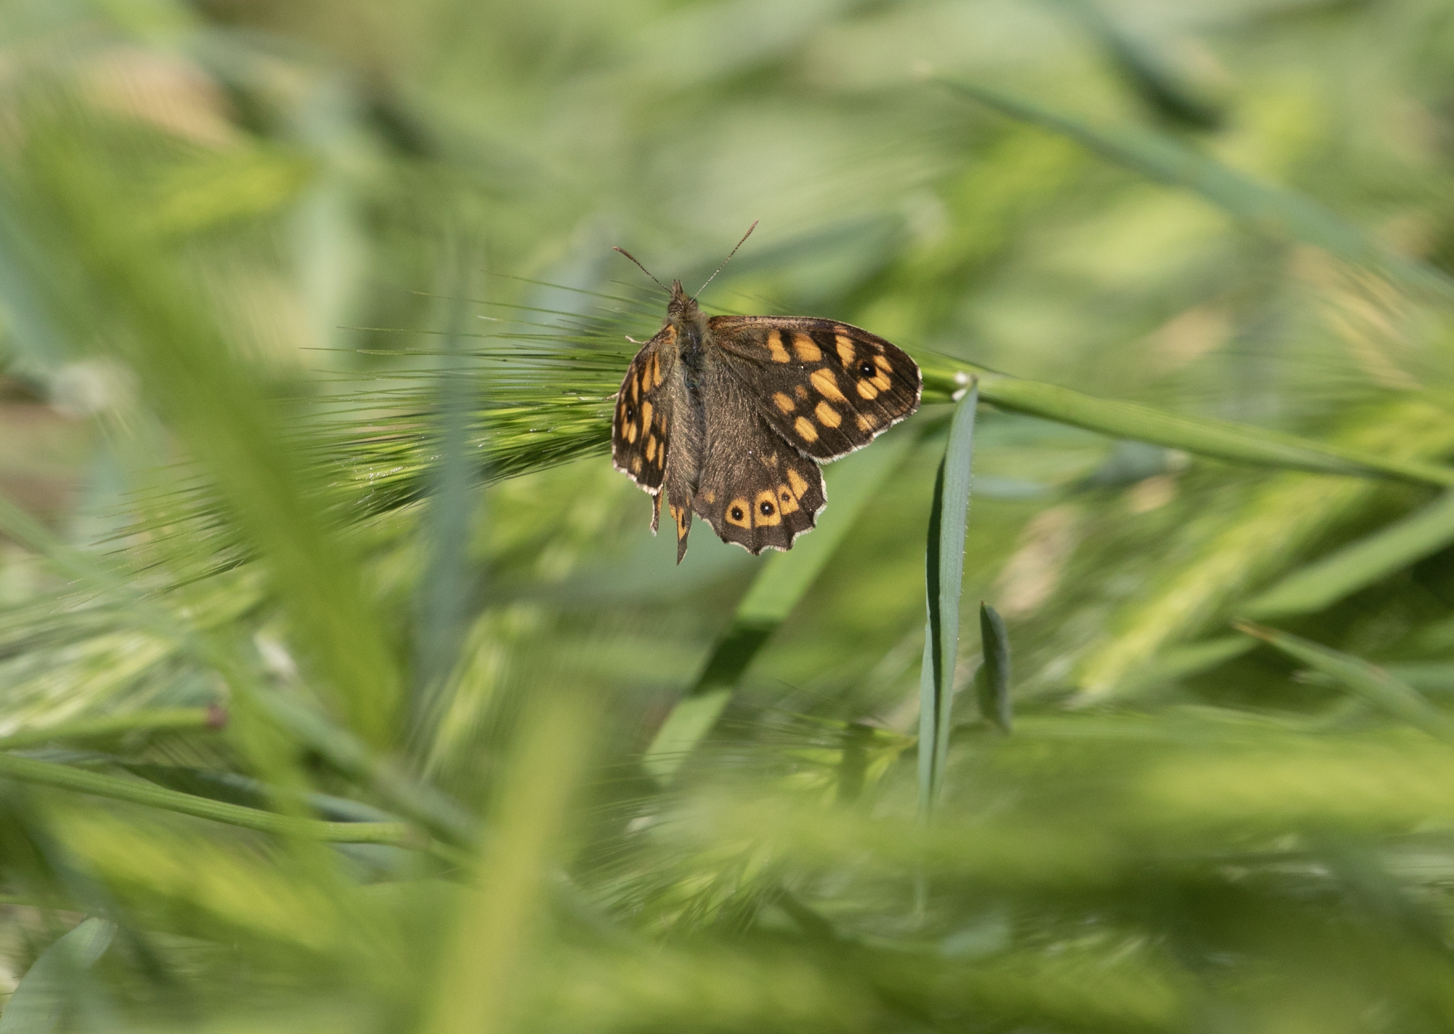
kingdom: Animalia
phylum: Arthropoda
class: Insecta
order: Lepidoptera
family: Nymphalidae
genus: Pararge
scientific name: Pararge aegeria
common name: Speckled wood
